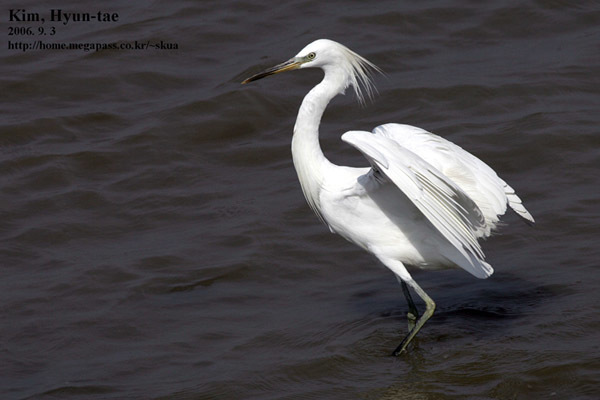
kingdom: Animalia
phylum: Chordata
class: Aves
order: Pelecaniformes
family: Ardeidae
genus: Egretta
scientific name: Egretta eulophotes
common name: Chinese egret
